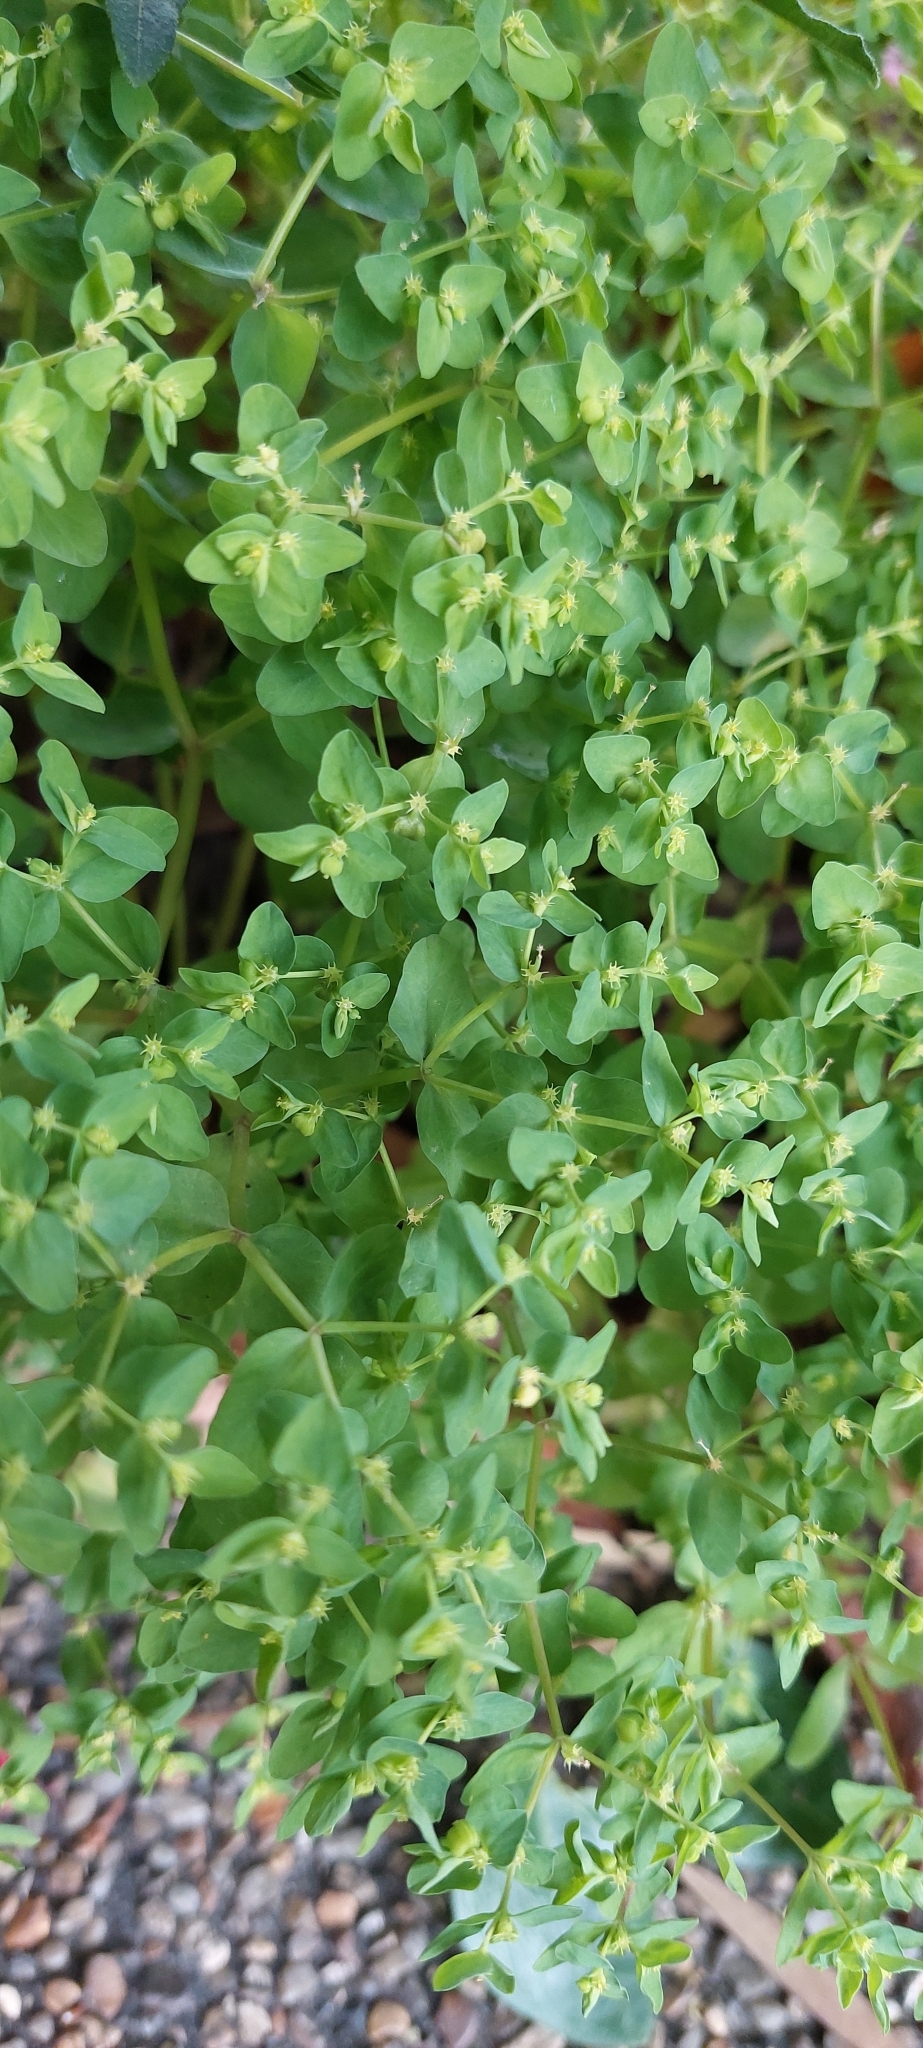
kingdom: Plantae
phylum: Tracheophyta
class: Magnoliopsida
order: Malpighiales
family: Euphorbiaceae
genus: Euphorbia
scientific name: Euphorbia peplus
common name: Petty spurge
